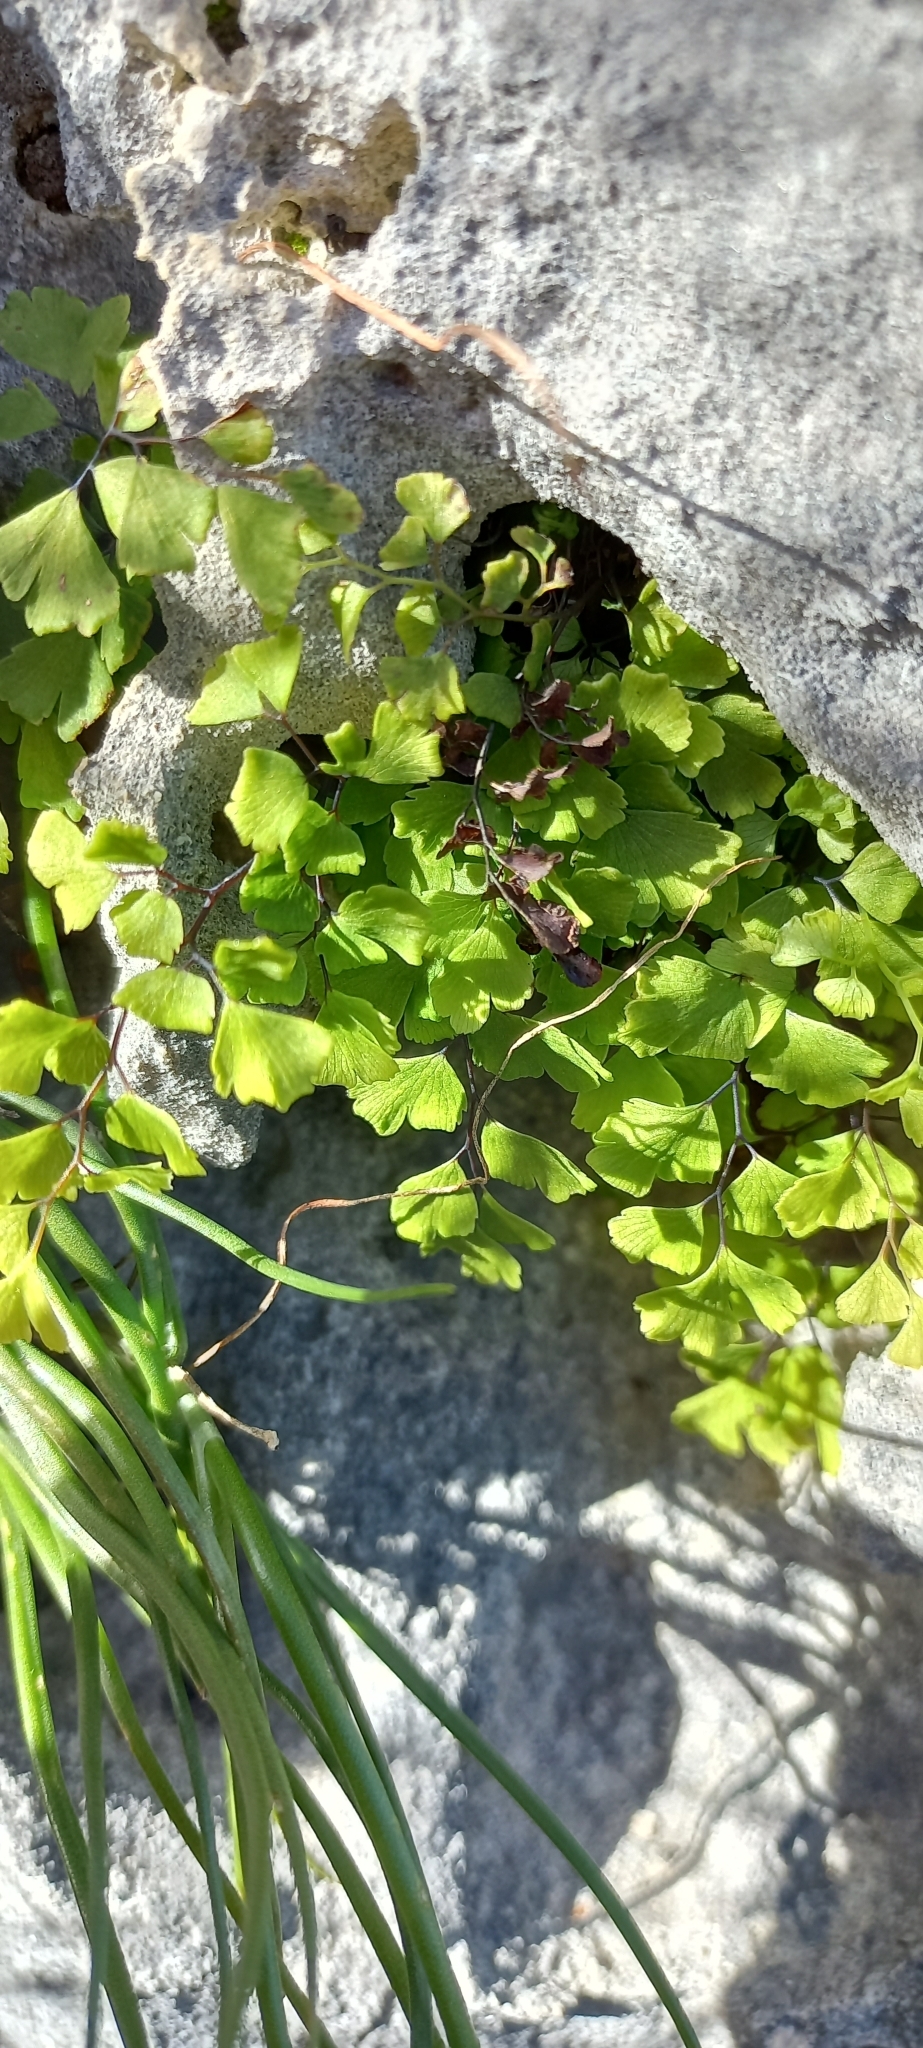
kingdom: Plantae
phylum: Tracheophyta
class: Polypodiopsida
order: Polypodiales
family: Pteridaceae
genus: Adiantum
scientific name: Adiantum capillus-veneris
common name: Maidenhair fern
